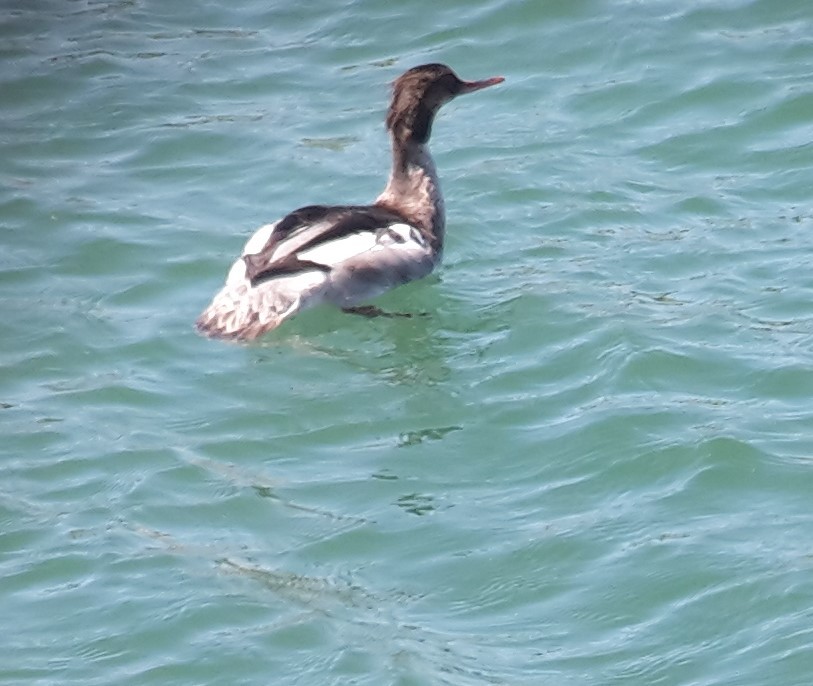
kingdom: Animalia
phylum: Chordata
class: Aves
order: Anseriformes
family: Anatidae
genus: Mergus
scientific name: Mergus serrator
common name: Red-breasted merganser
